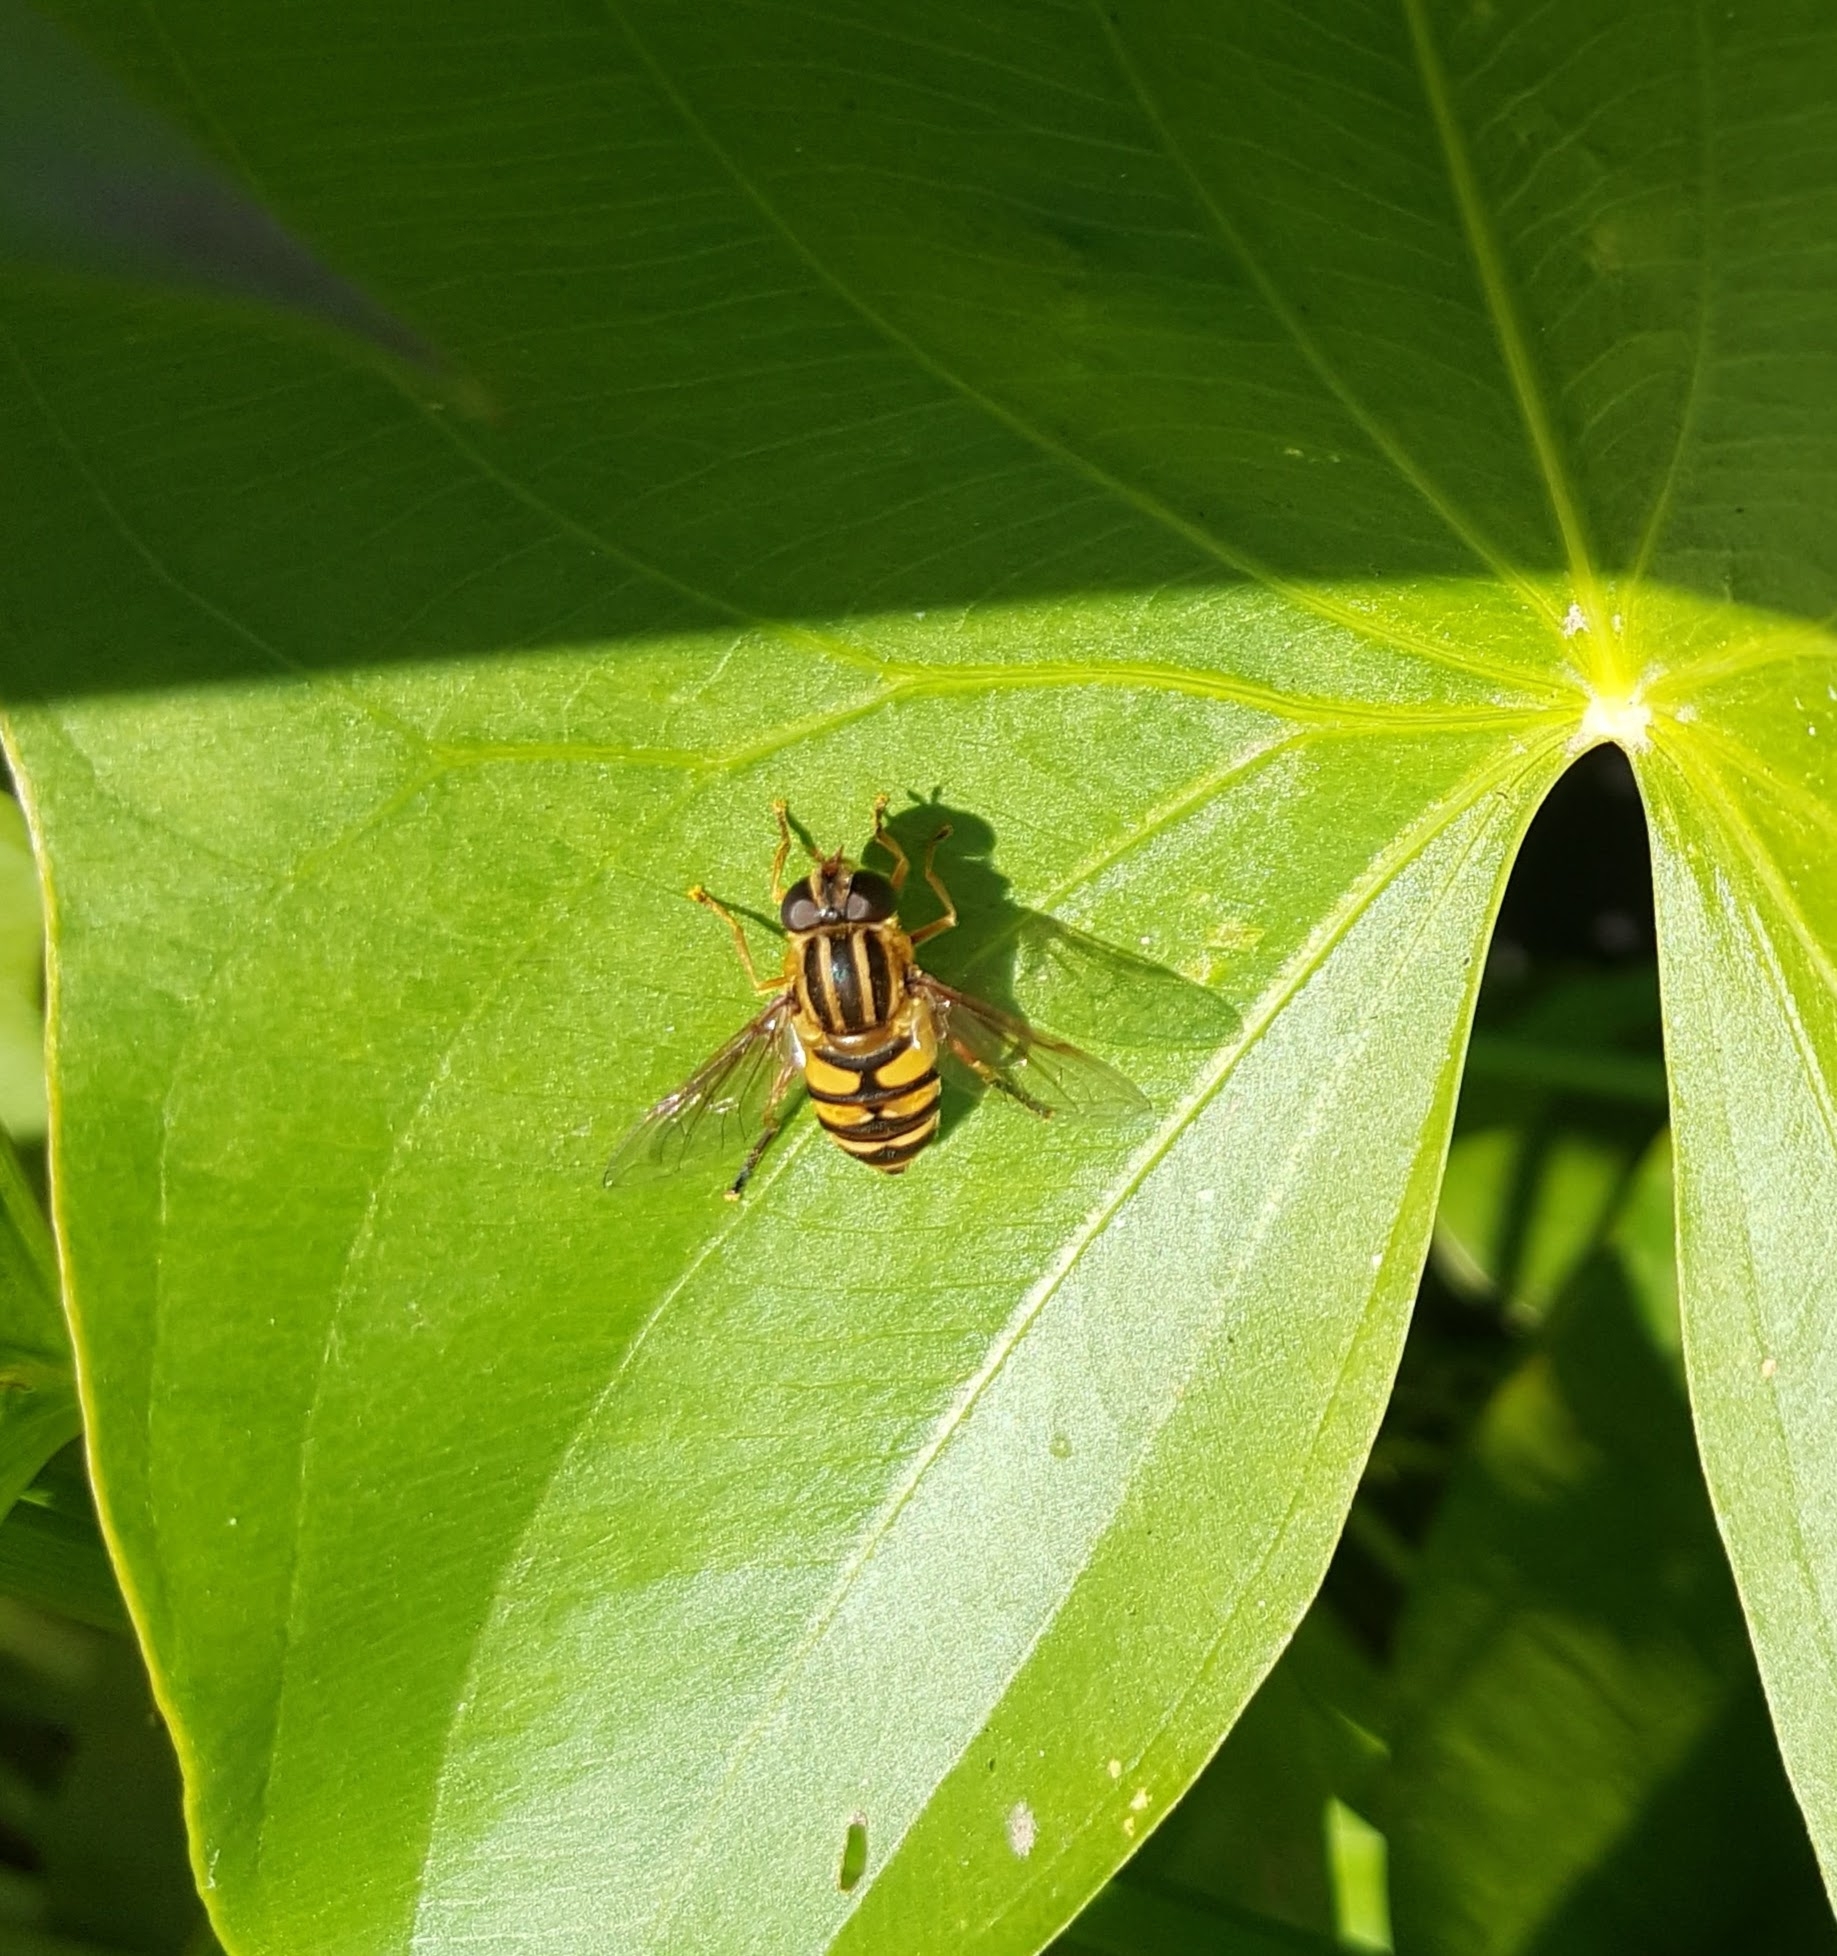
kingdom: Animalia
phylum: Arthropoda
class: Insecta
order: Diptera
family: Syrphidae
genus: Helophilus
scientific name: Helophilus fasciatus
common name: Narrow-headed marsh fly
